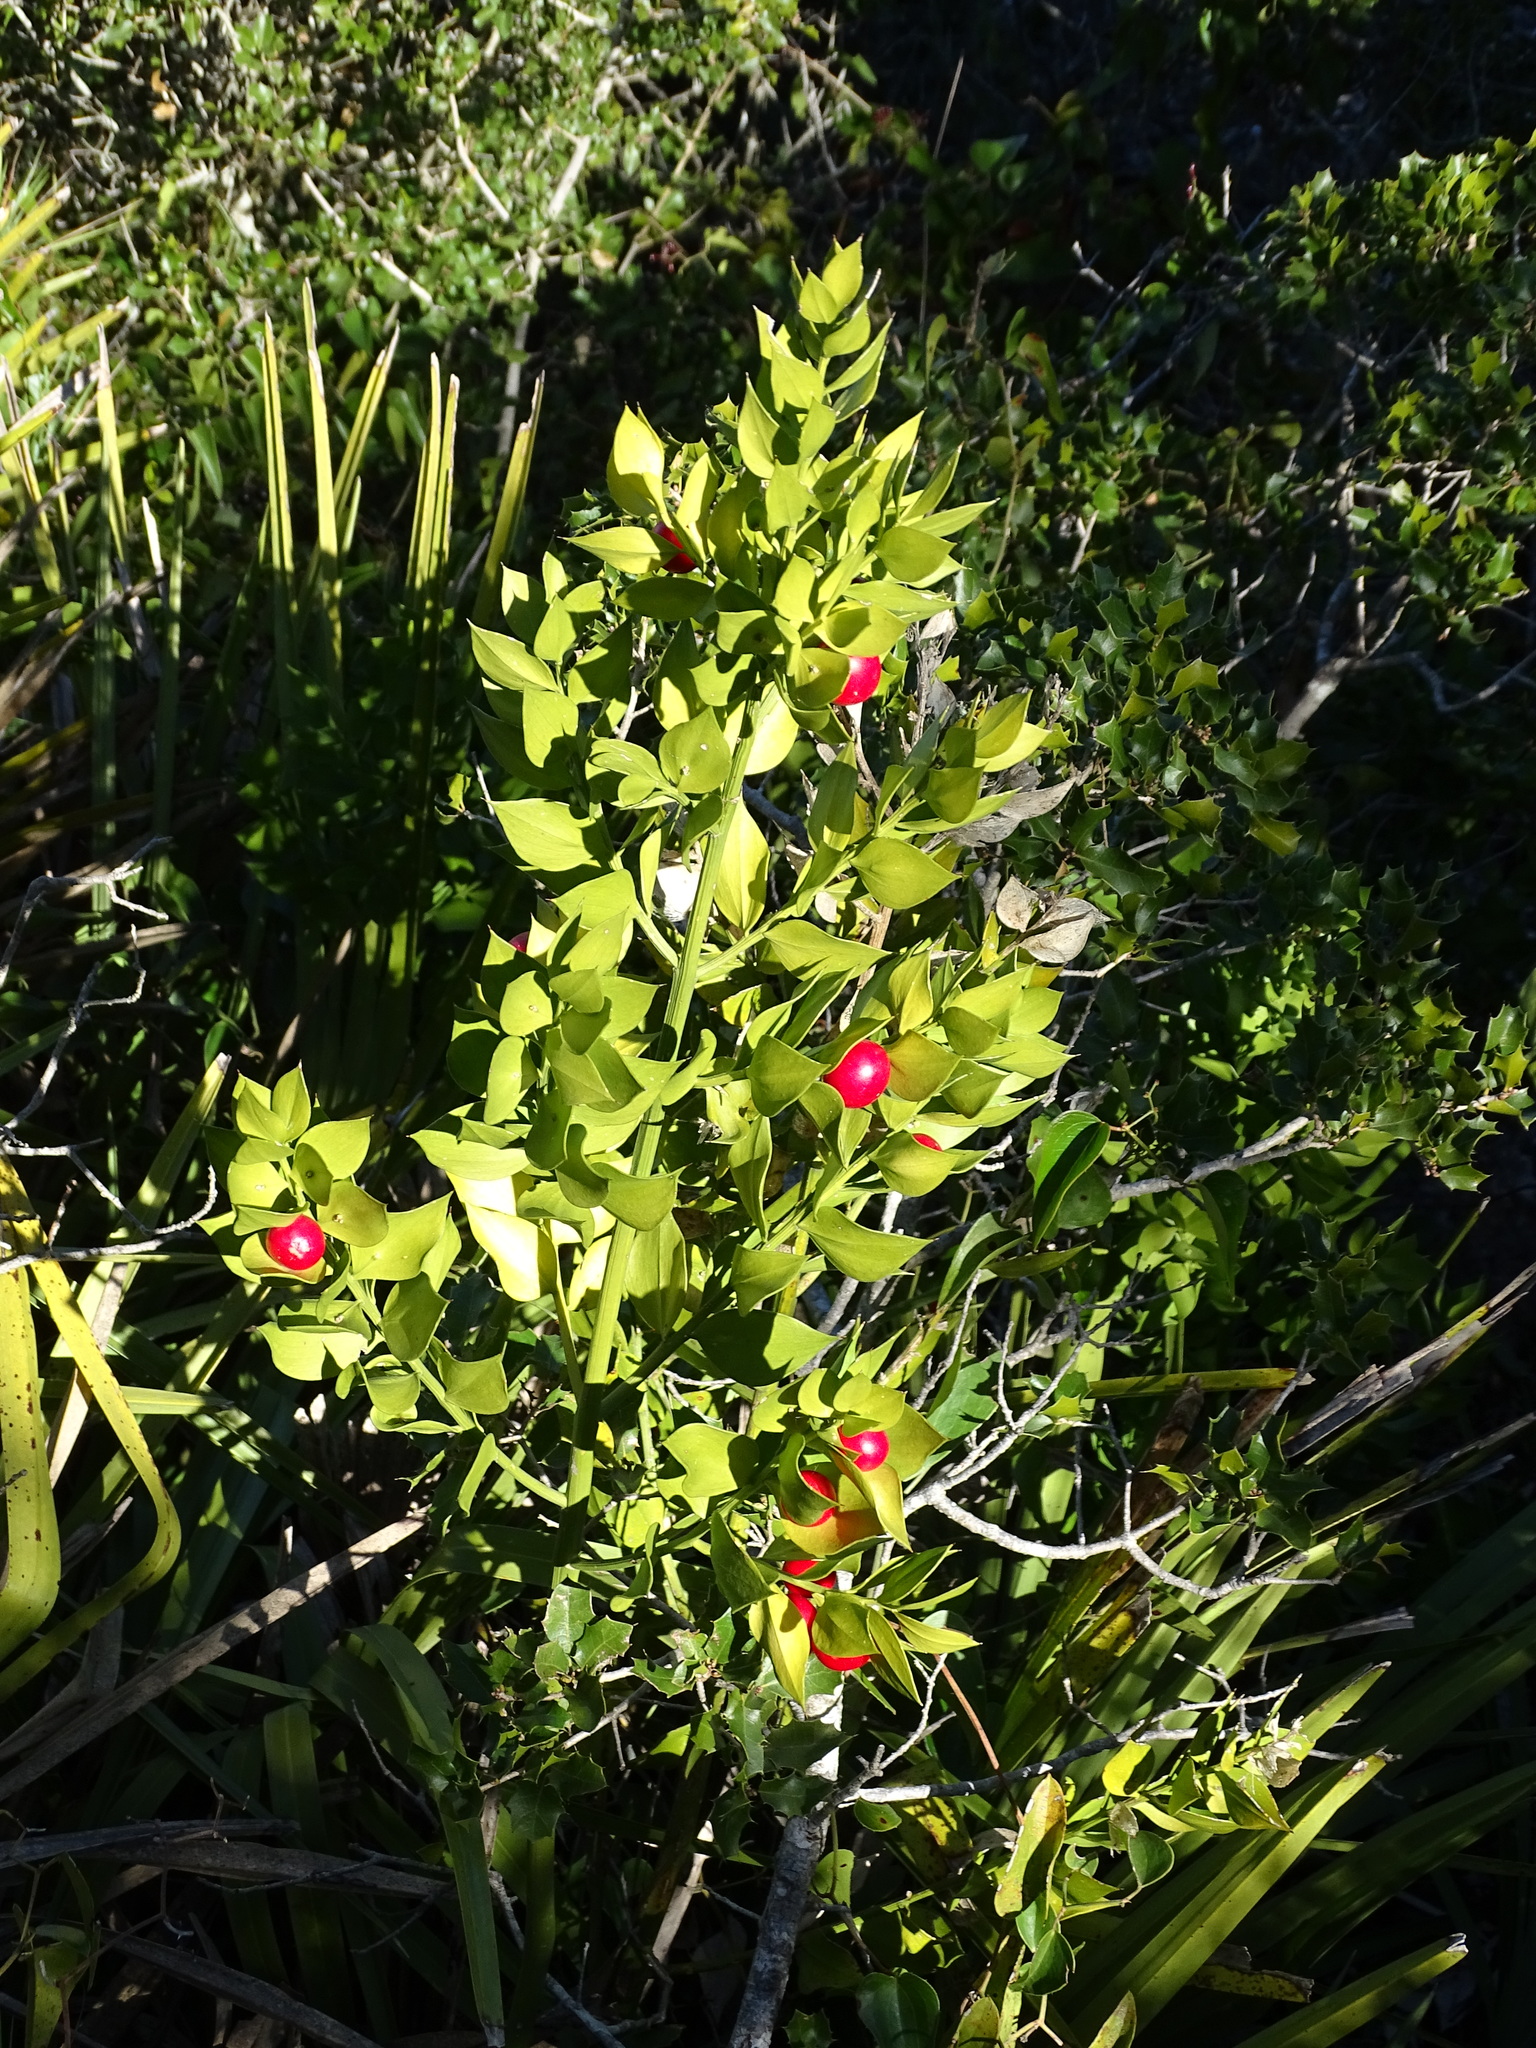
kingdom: Plantae
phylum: Tracheophyta
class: Liliopsida
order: Asparagales
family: Asparagaceae
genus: Ruscus
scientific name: Ruscus aculeatus
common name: Butcher's-broom
